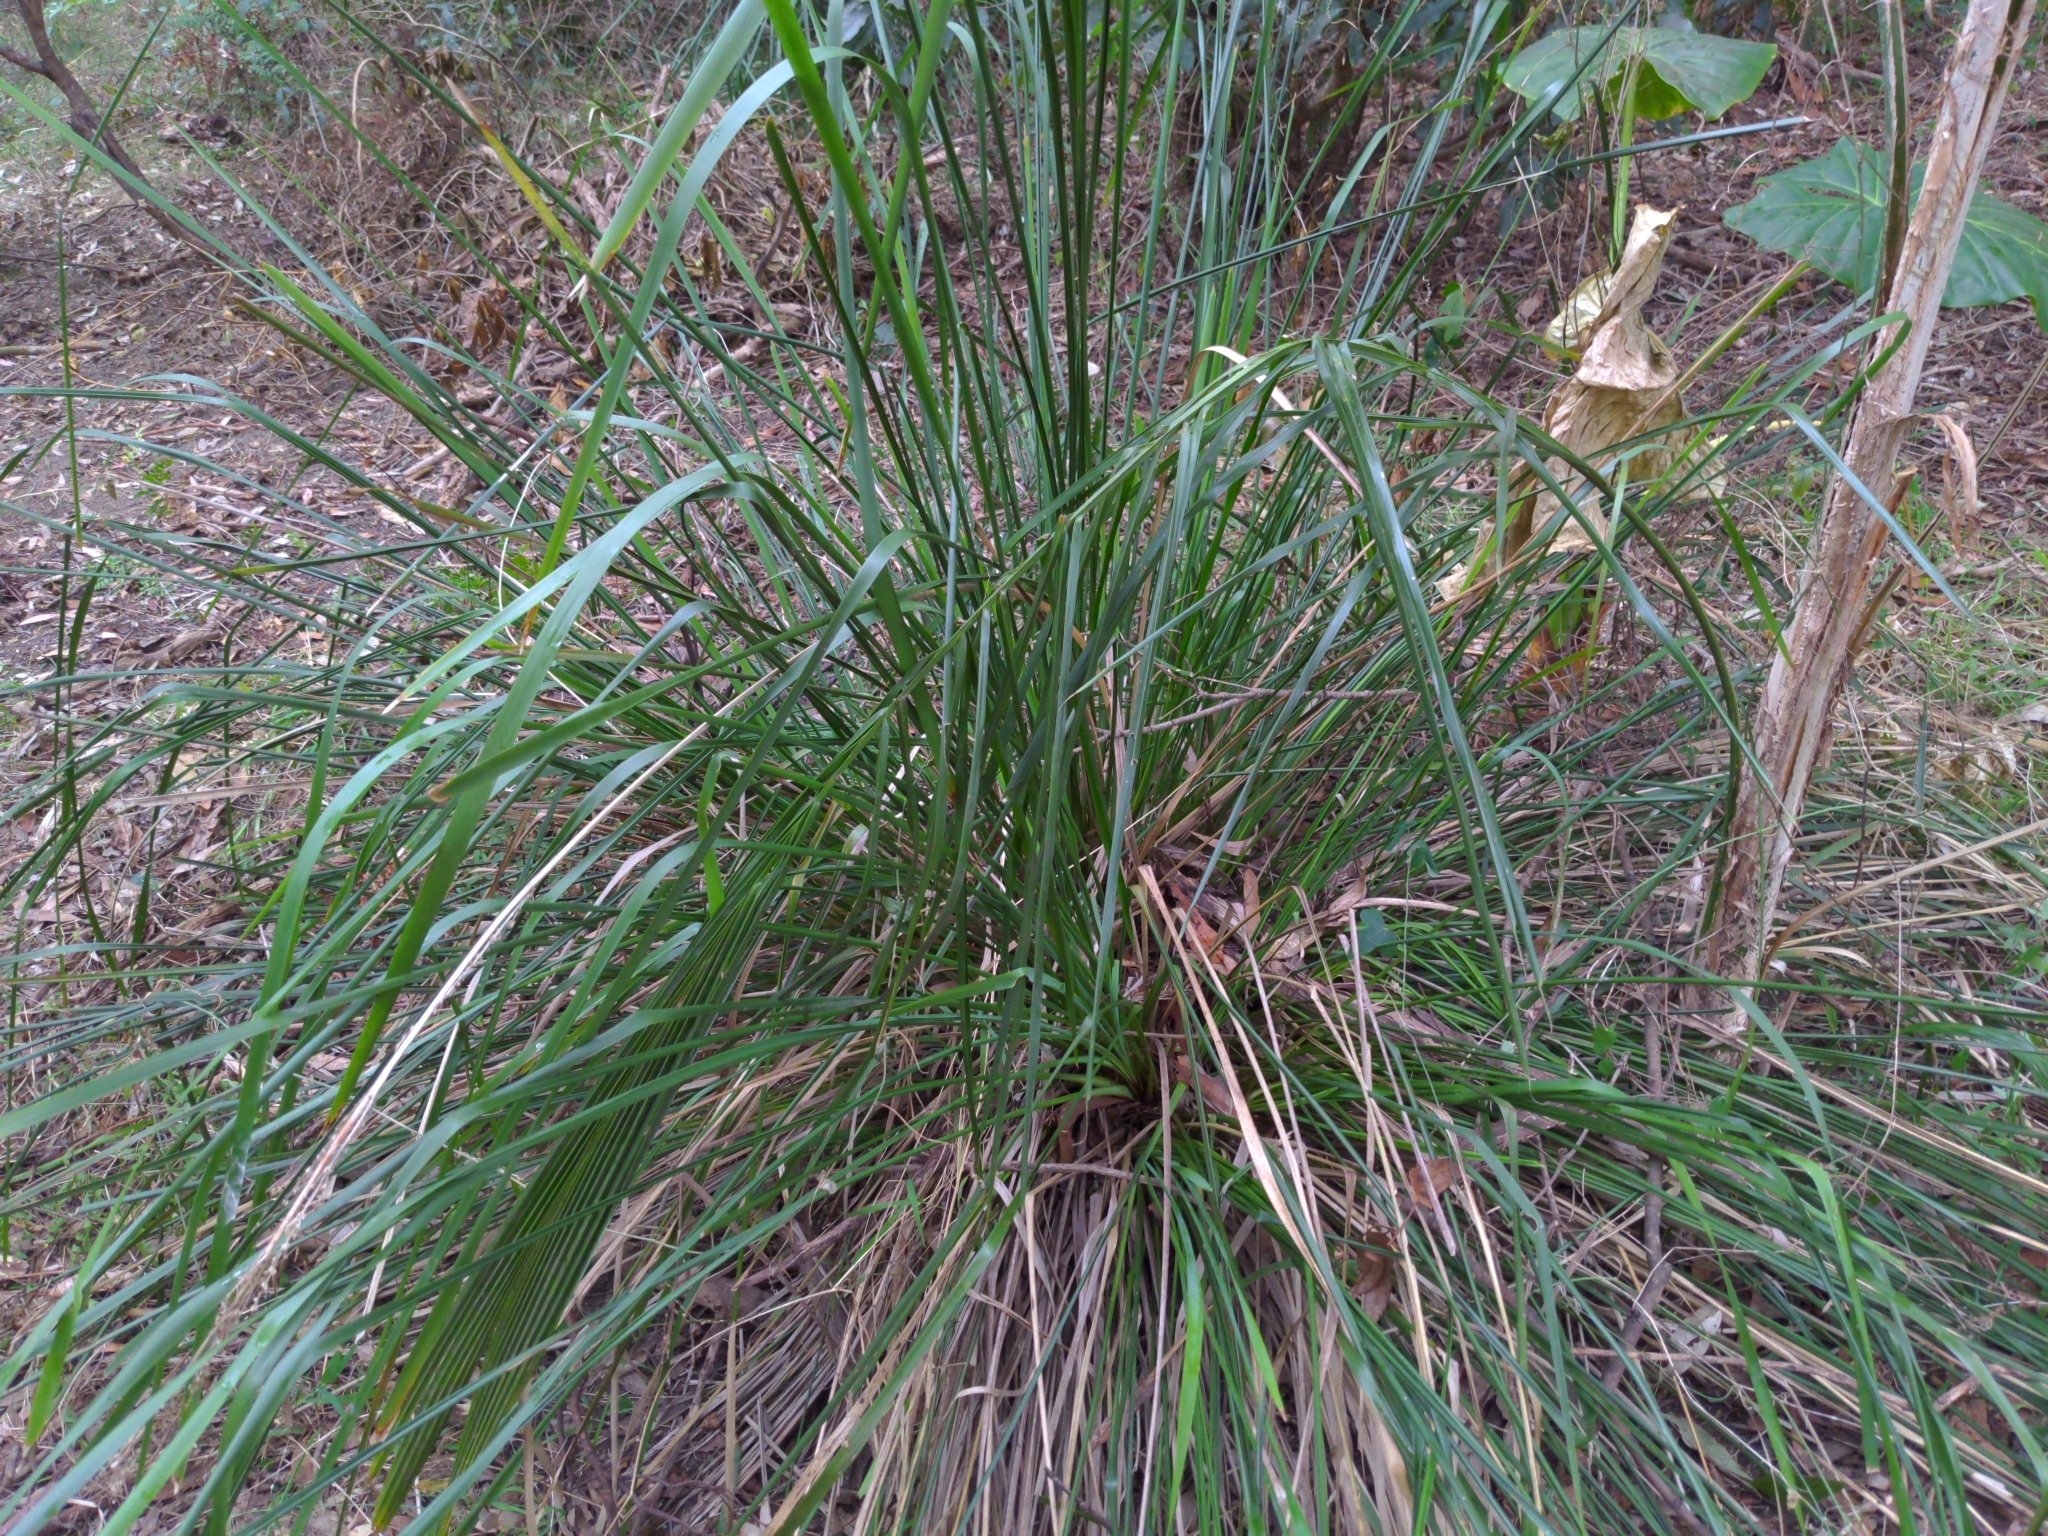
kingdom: Plantae
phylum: Tracheophyta
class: Liliopsida
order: Asparagales
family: Asparagaceae
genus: Lomandra
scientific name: Lomandra longifolia
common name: Longleaf mat-rush
